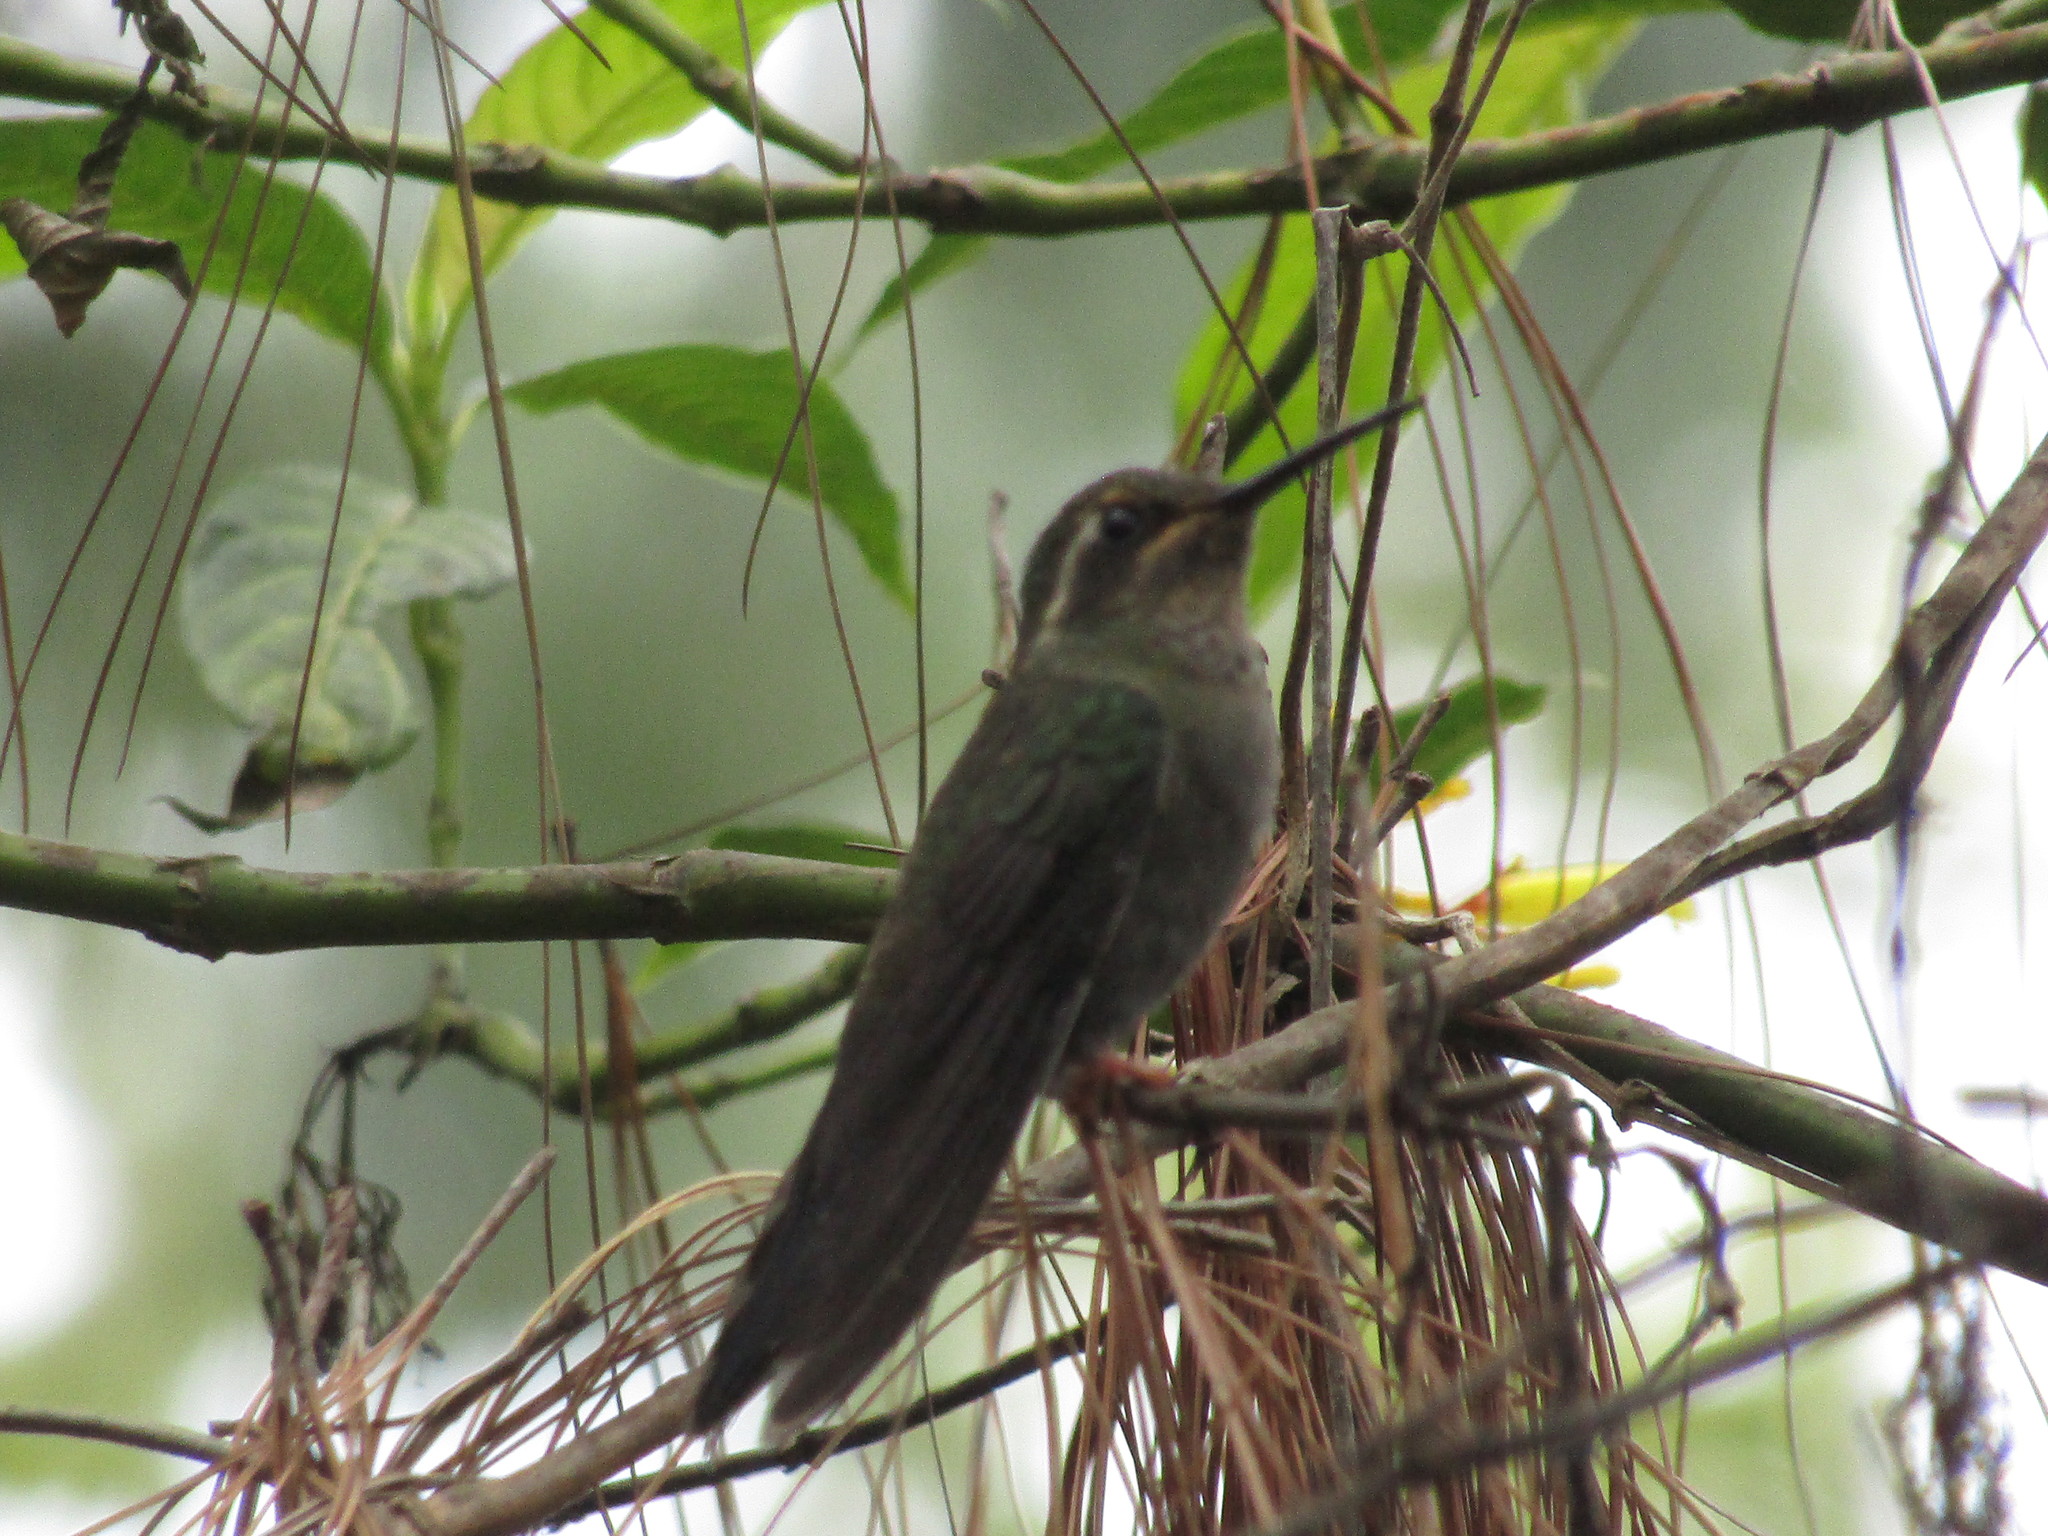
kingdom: Animalia
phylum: Chordata
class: Aves
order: Apodiformes
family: Trochilidae
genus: Lampornis
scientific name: Lampornis amethystinus
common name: Amethyst-throated mountaingem
